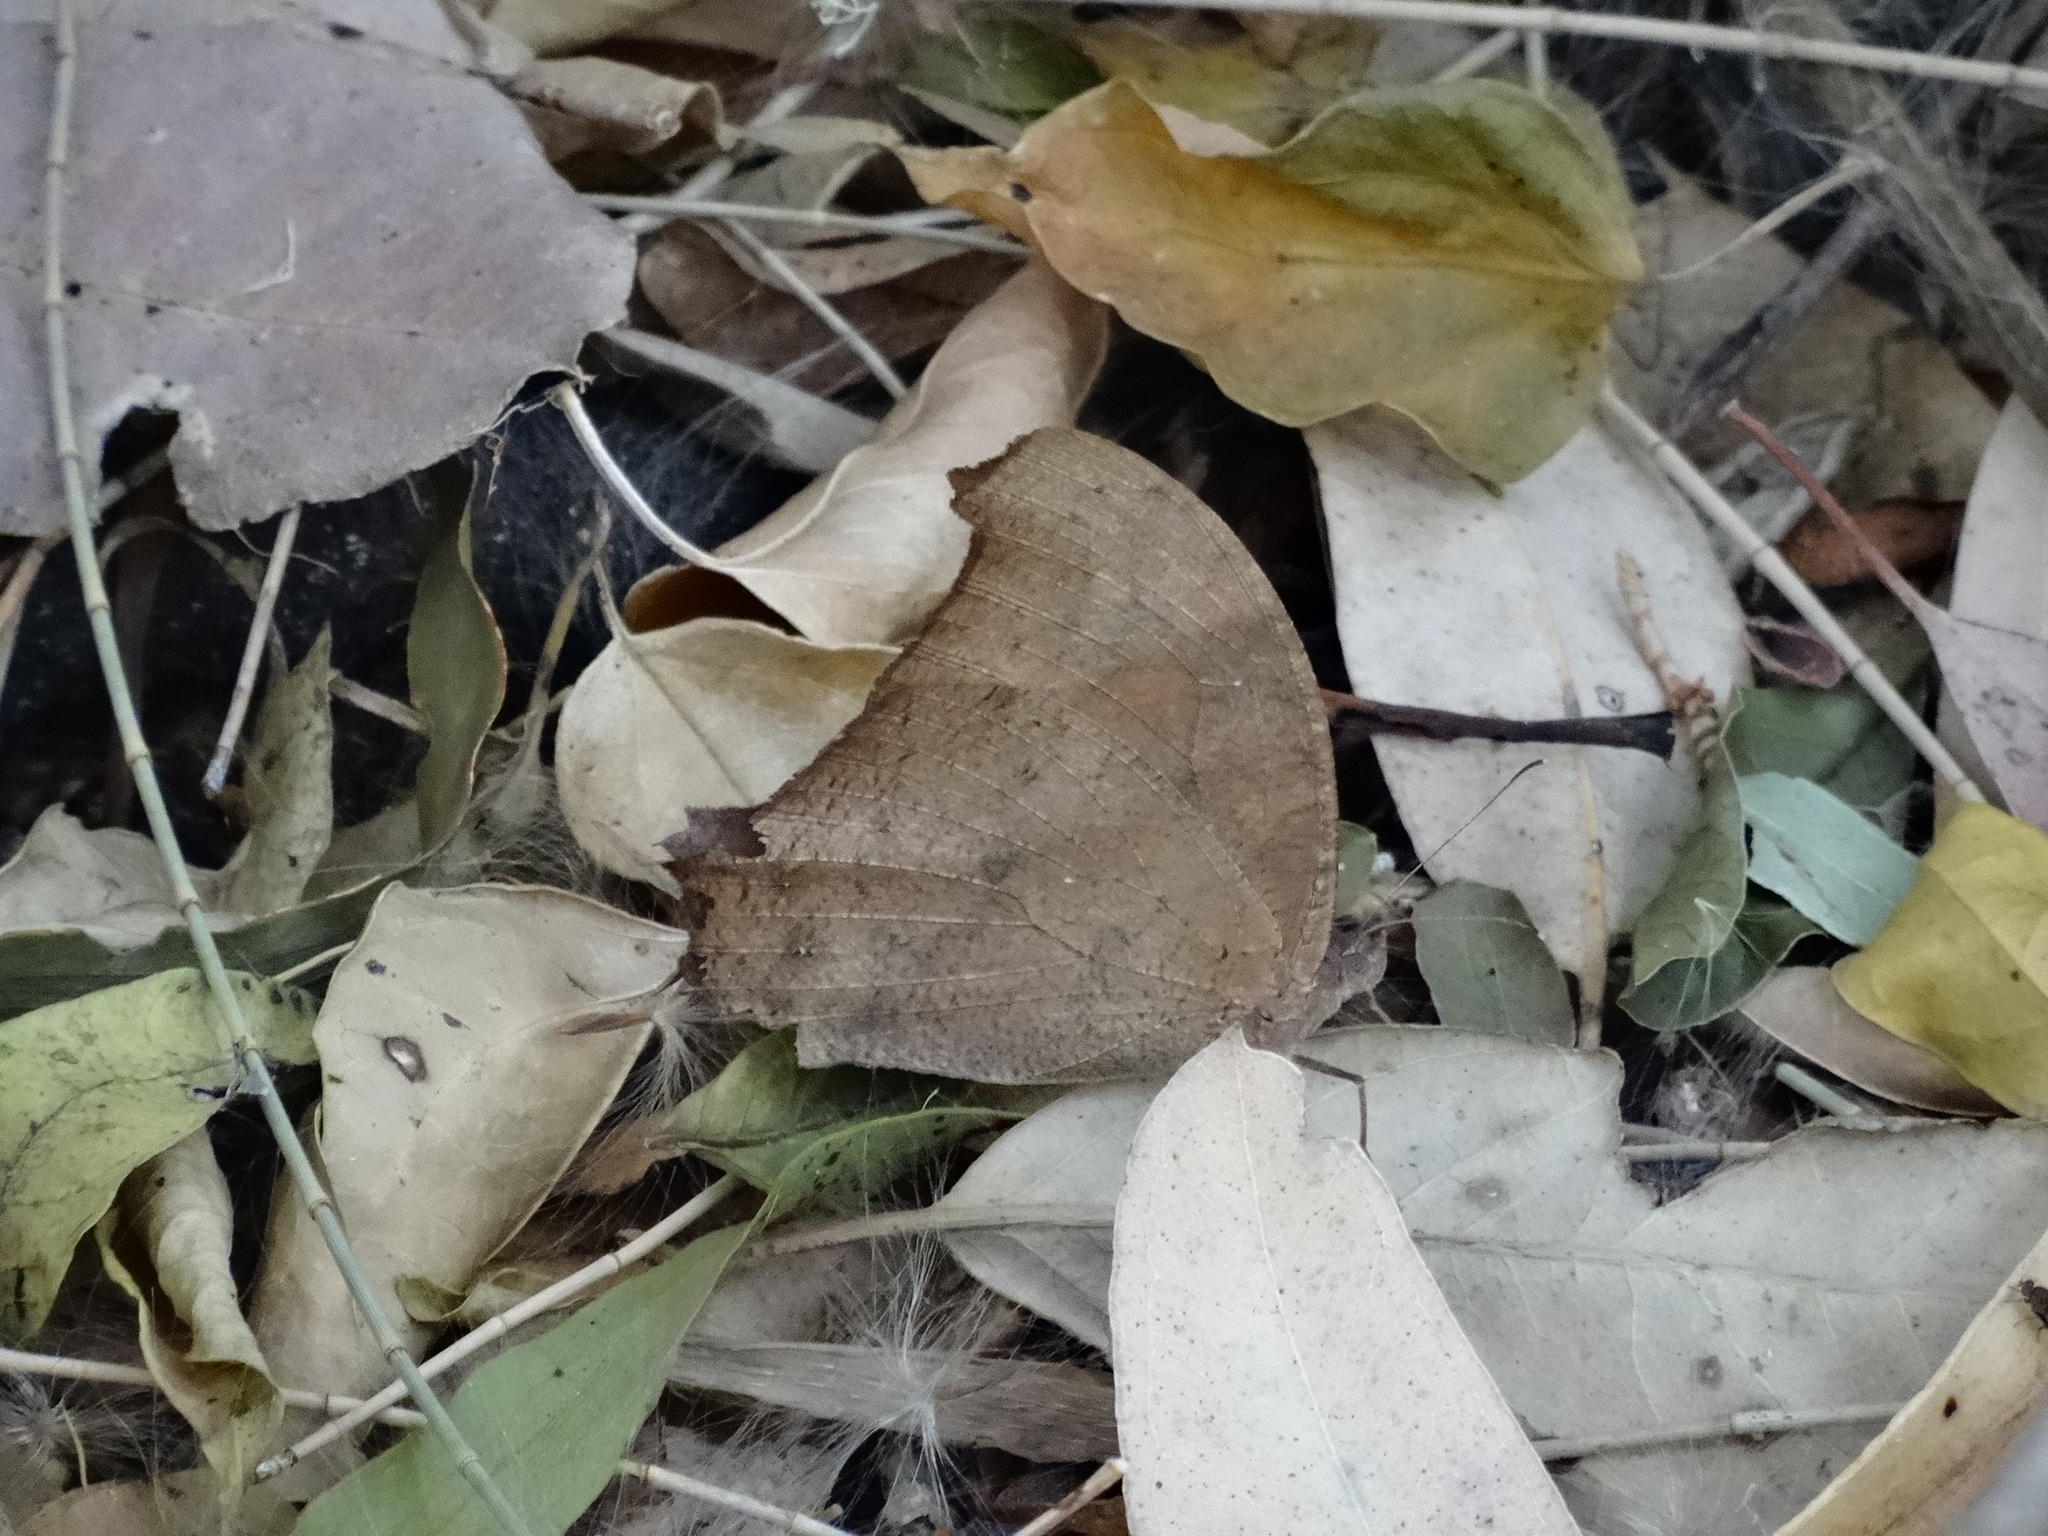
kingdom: Animalia
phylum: Arthropoda
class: Insecta
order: Lepidoptera
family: Nymphalidae
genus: Melanitis
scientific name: Melanitis leda
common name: Twilight brown
